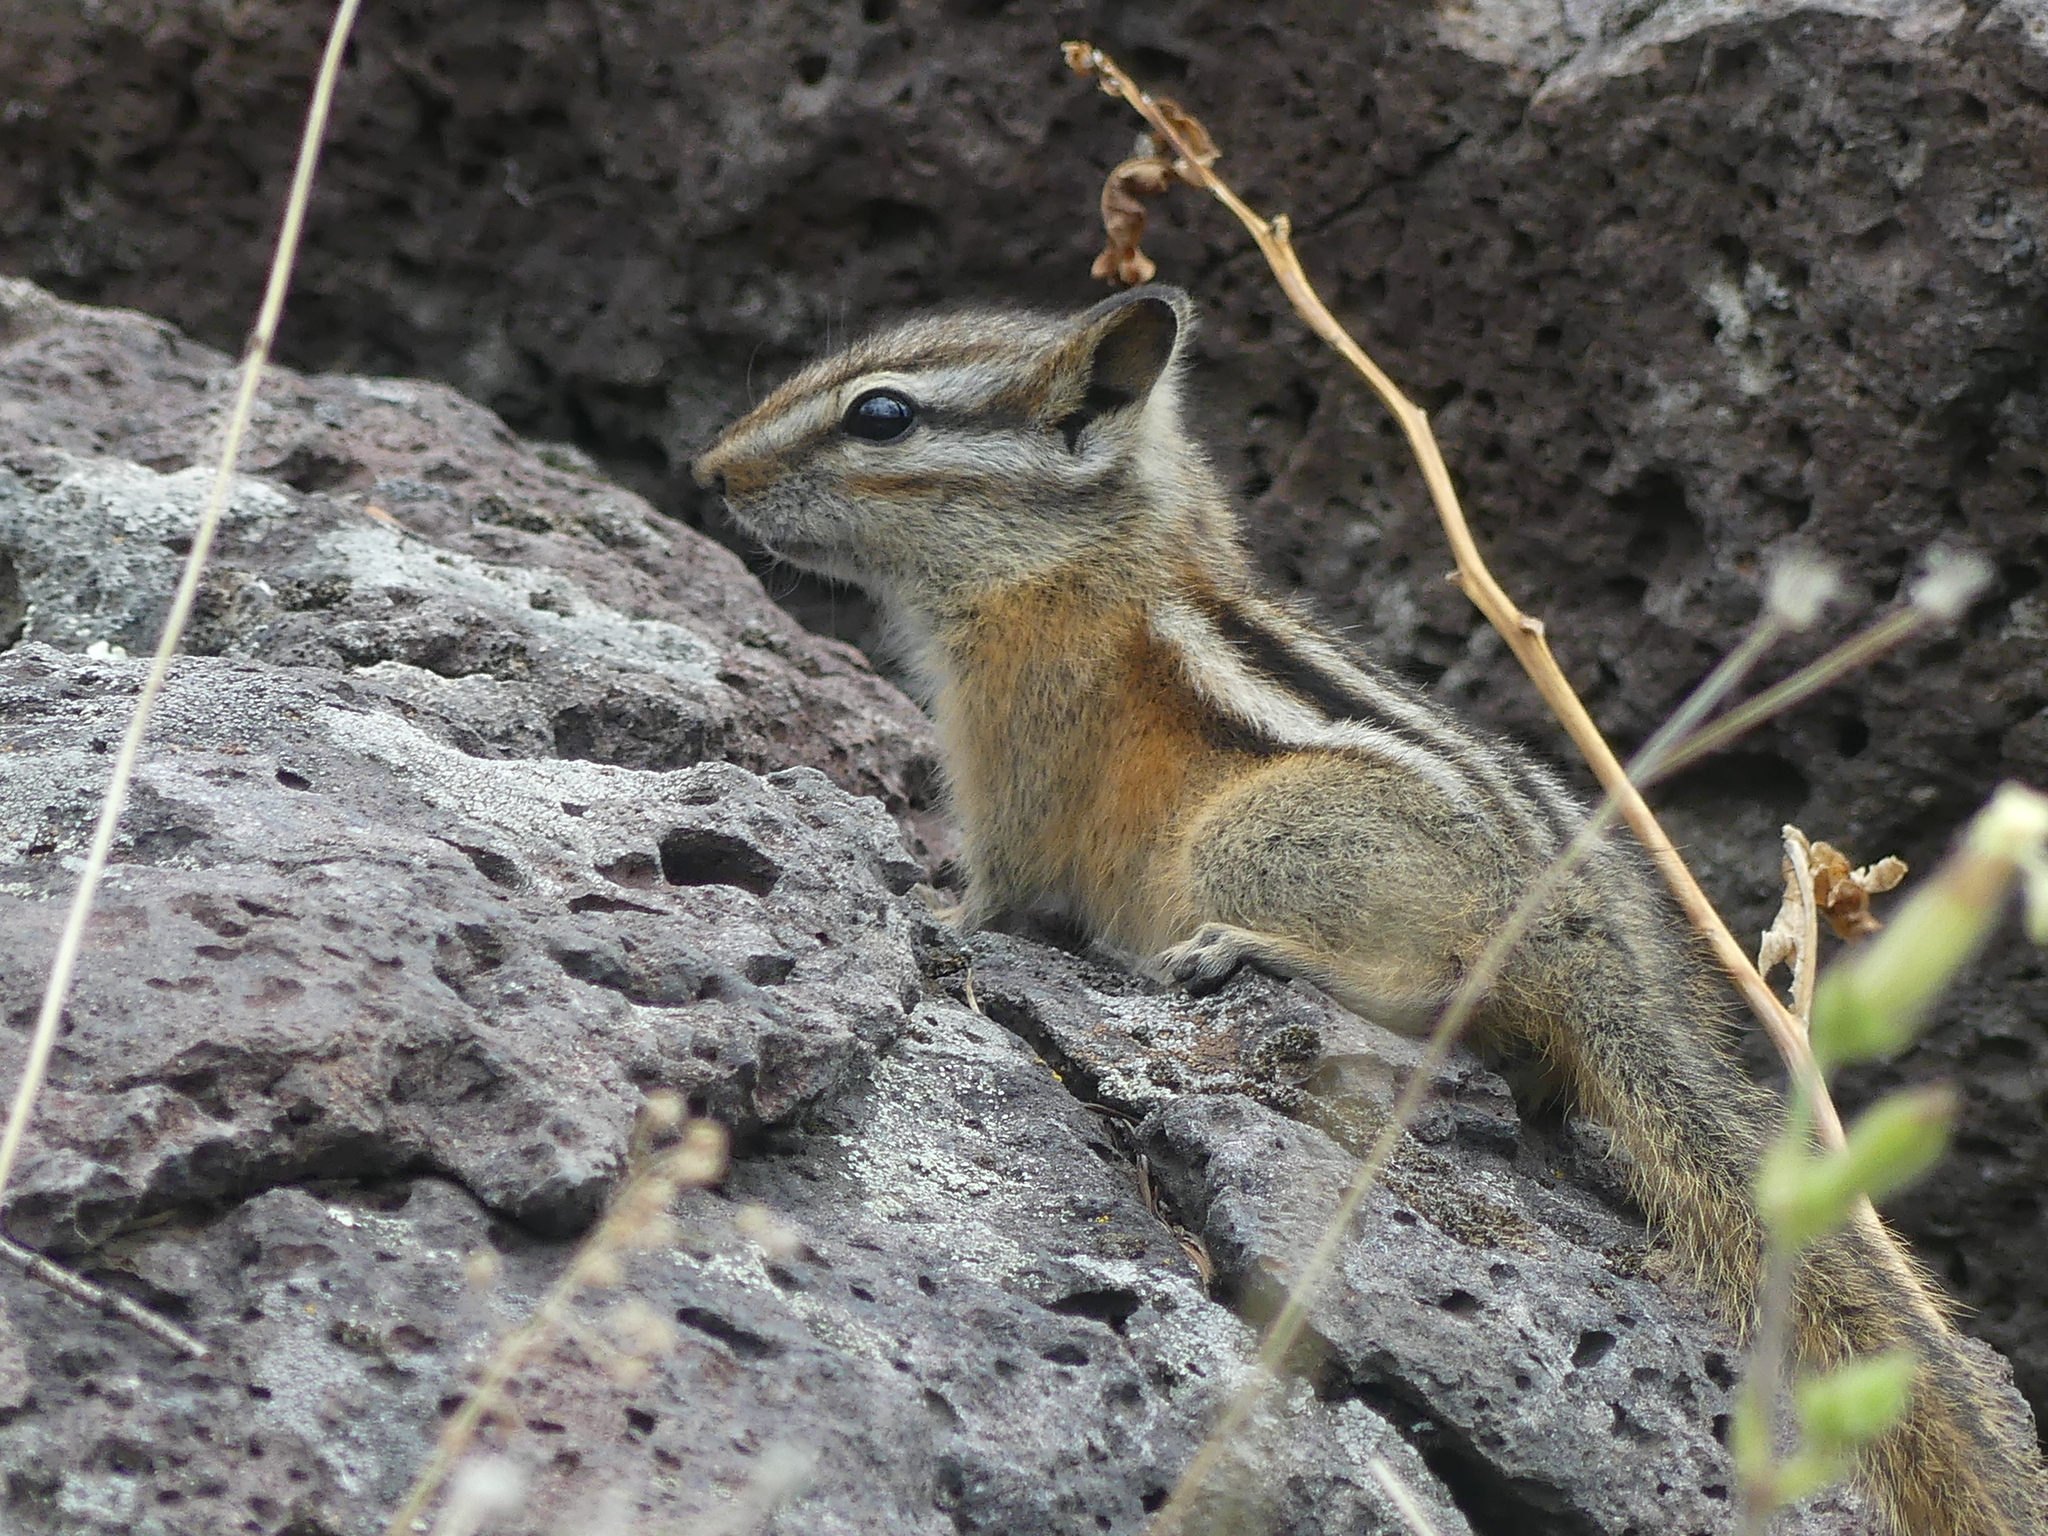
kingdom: Animalia
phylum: Chordata
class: Mammalia
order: Rodentia
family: Sciuridae
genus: Tamias
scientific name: Tamias amoenus
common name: Yellow-pine chipmunk
